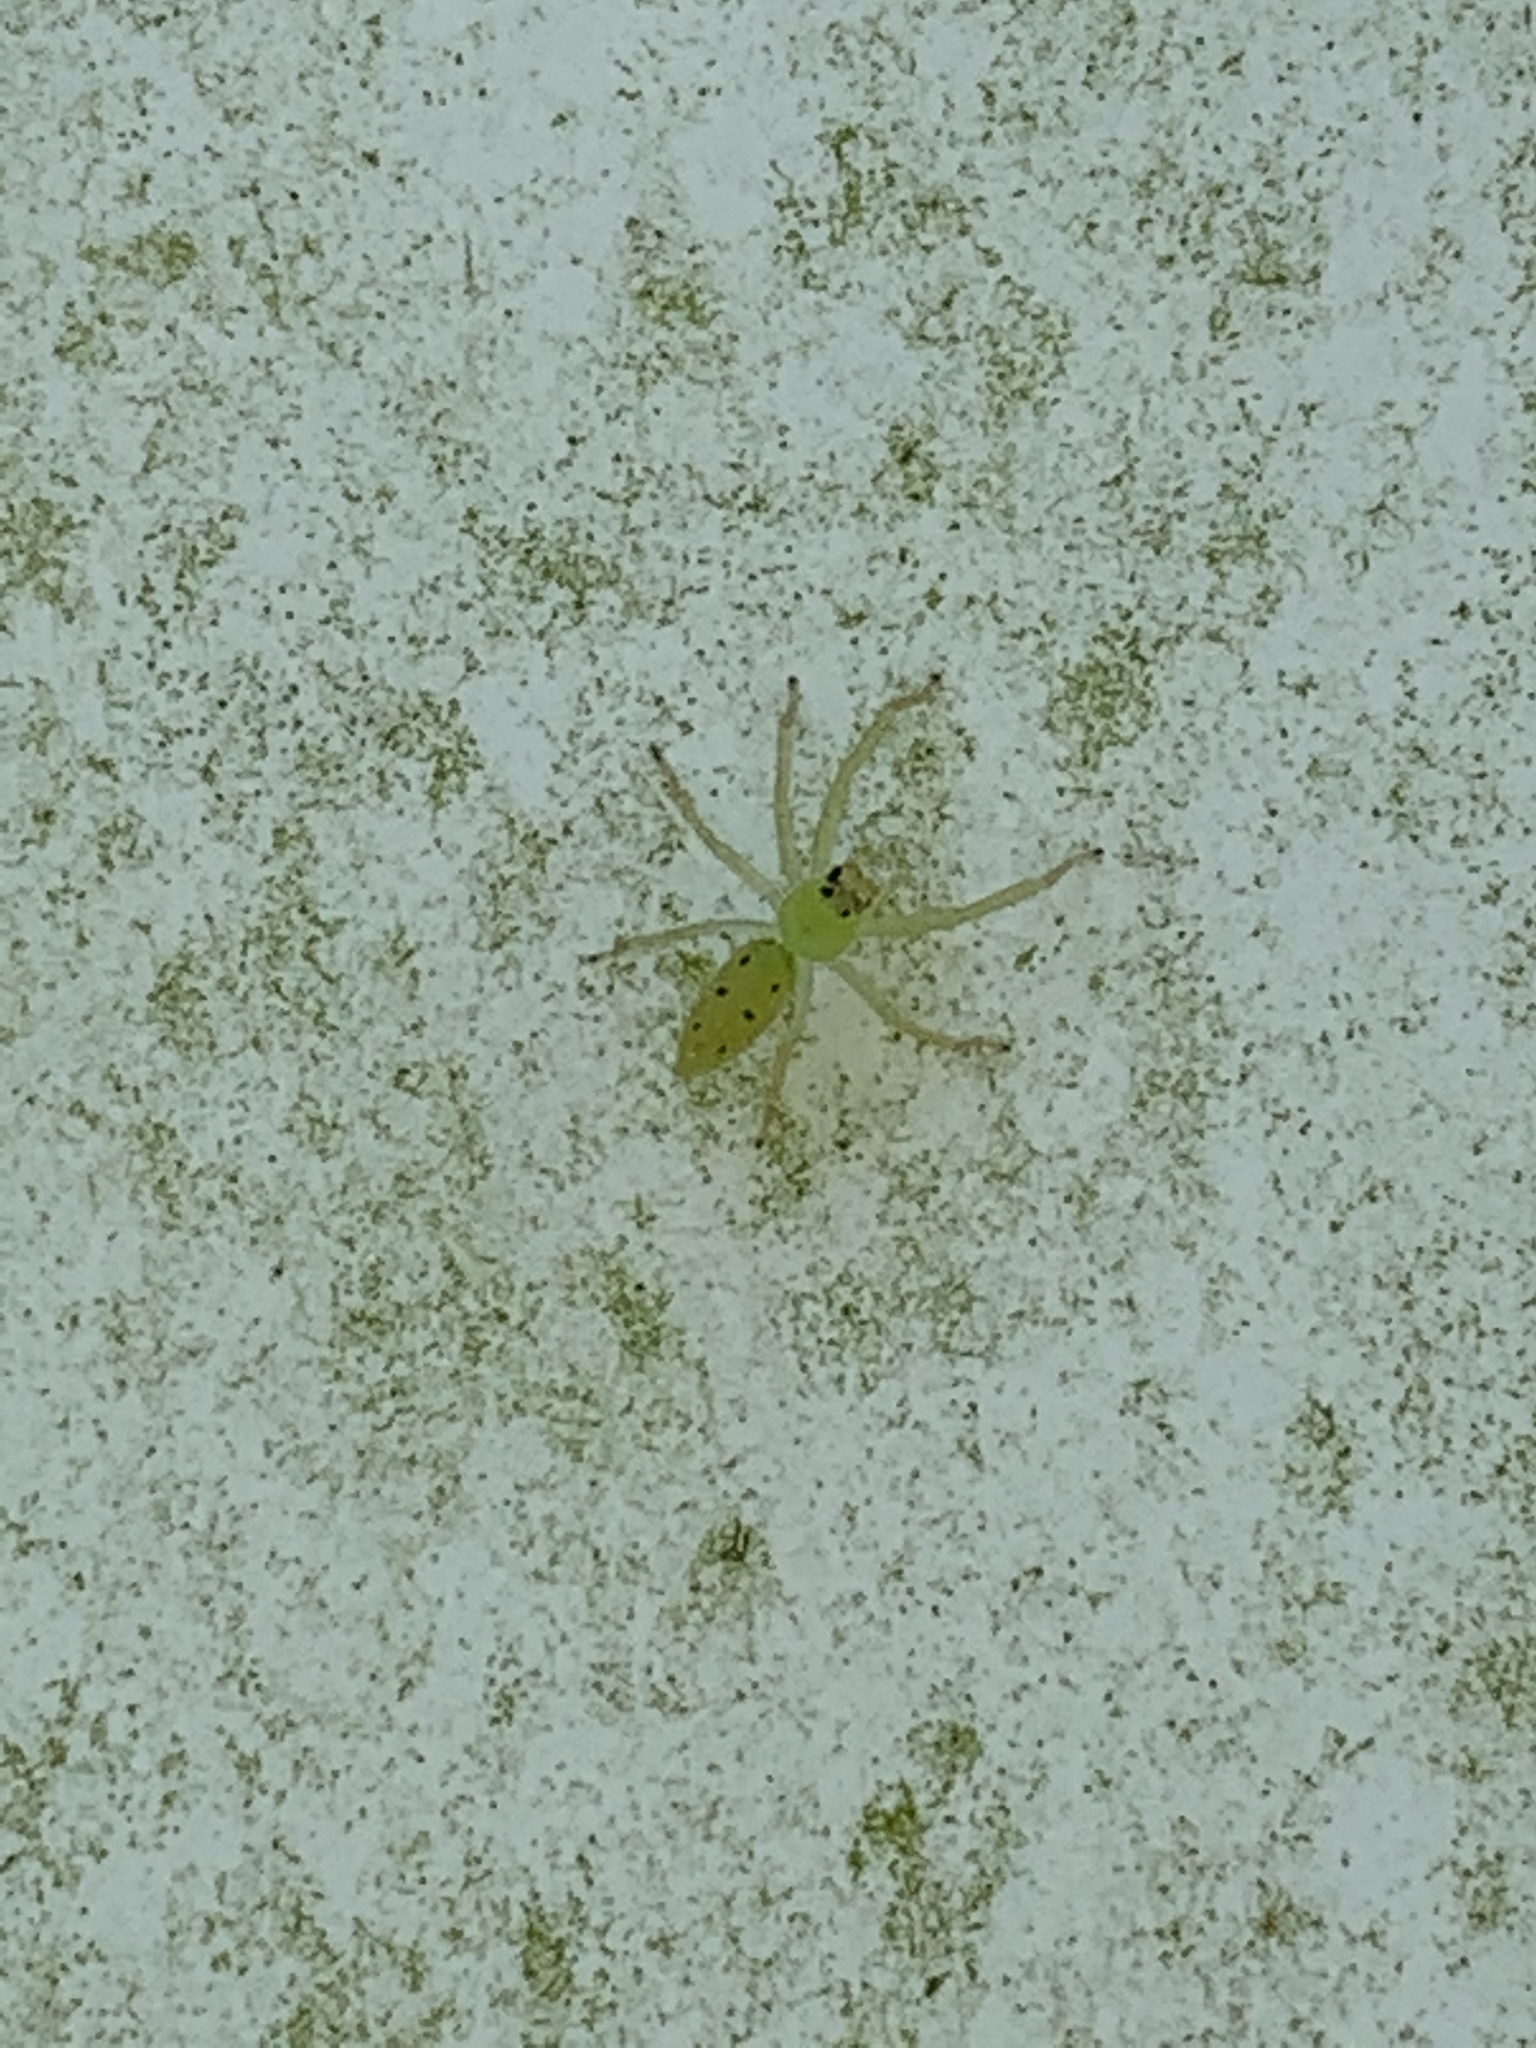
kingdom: Animalia
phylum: Arthropoda
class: Arachnida
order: Araneae
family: Salticidae
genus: Lyssomanes
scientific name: Lyssomanes viridis
